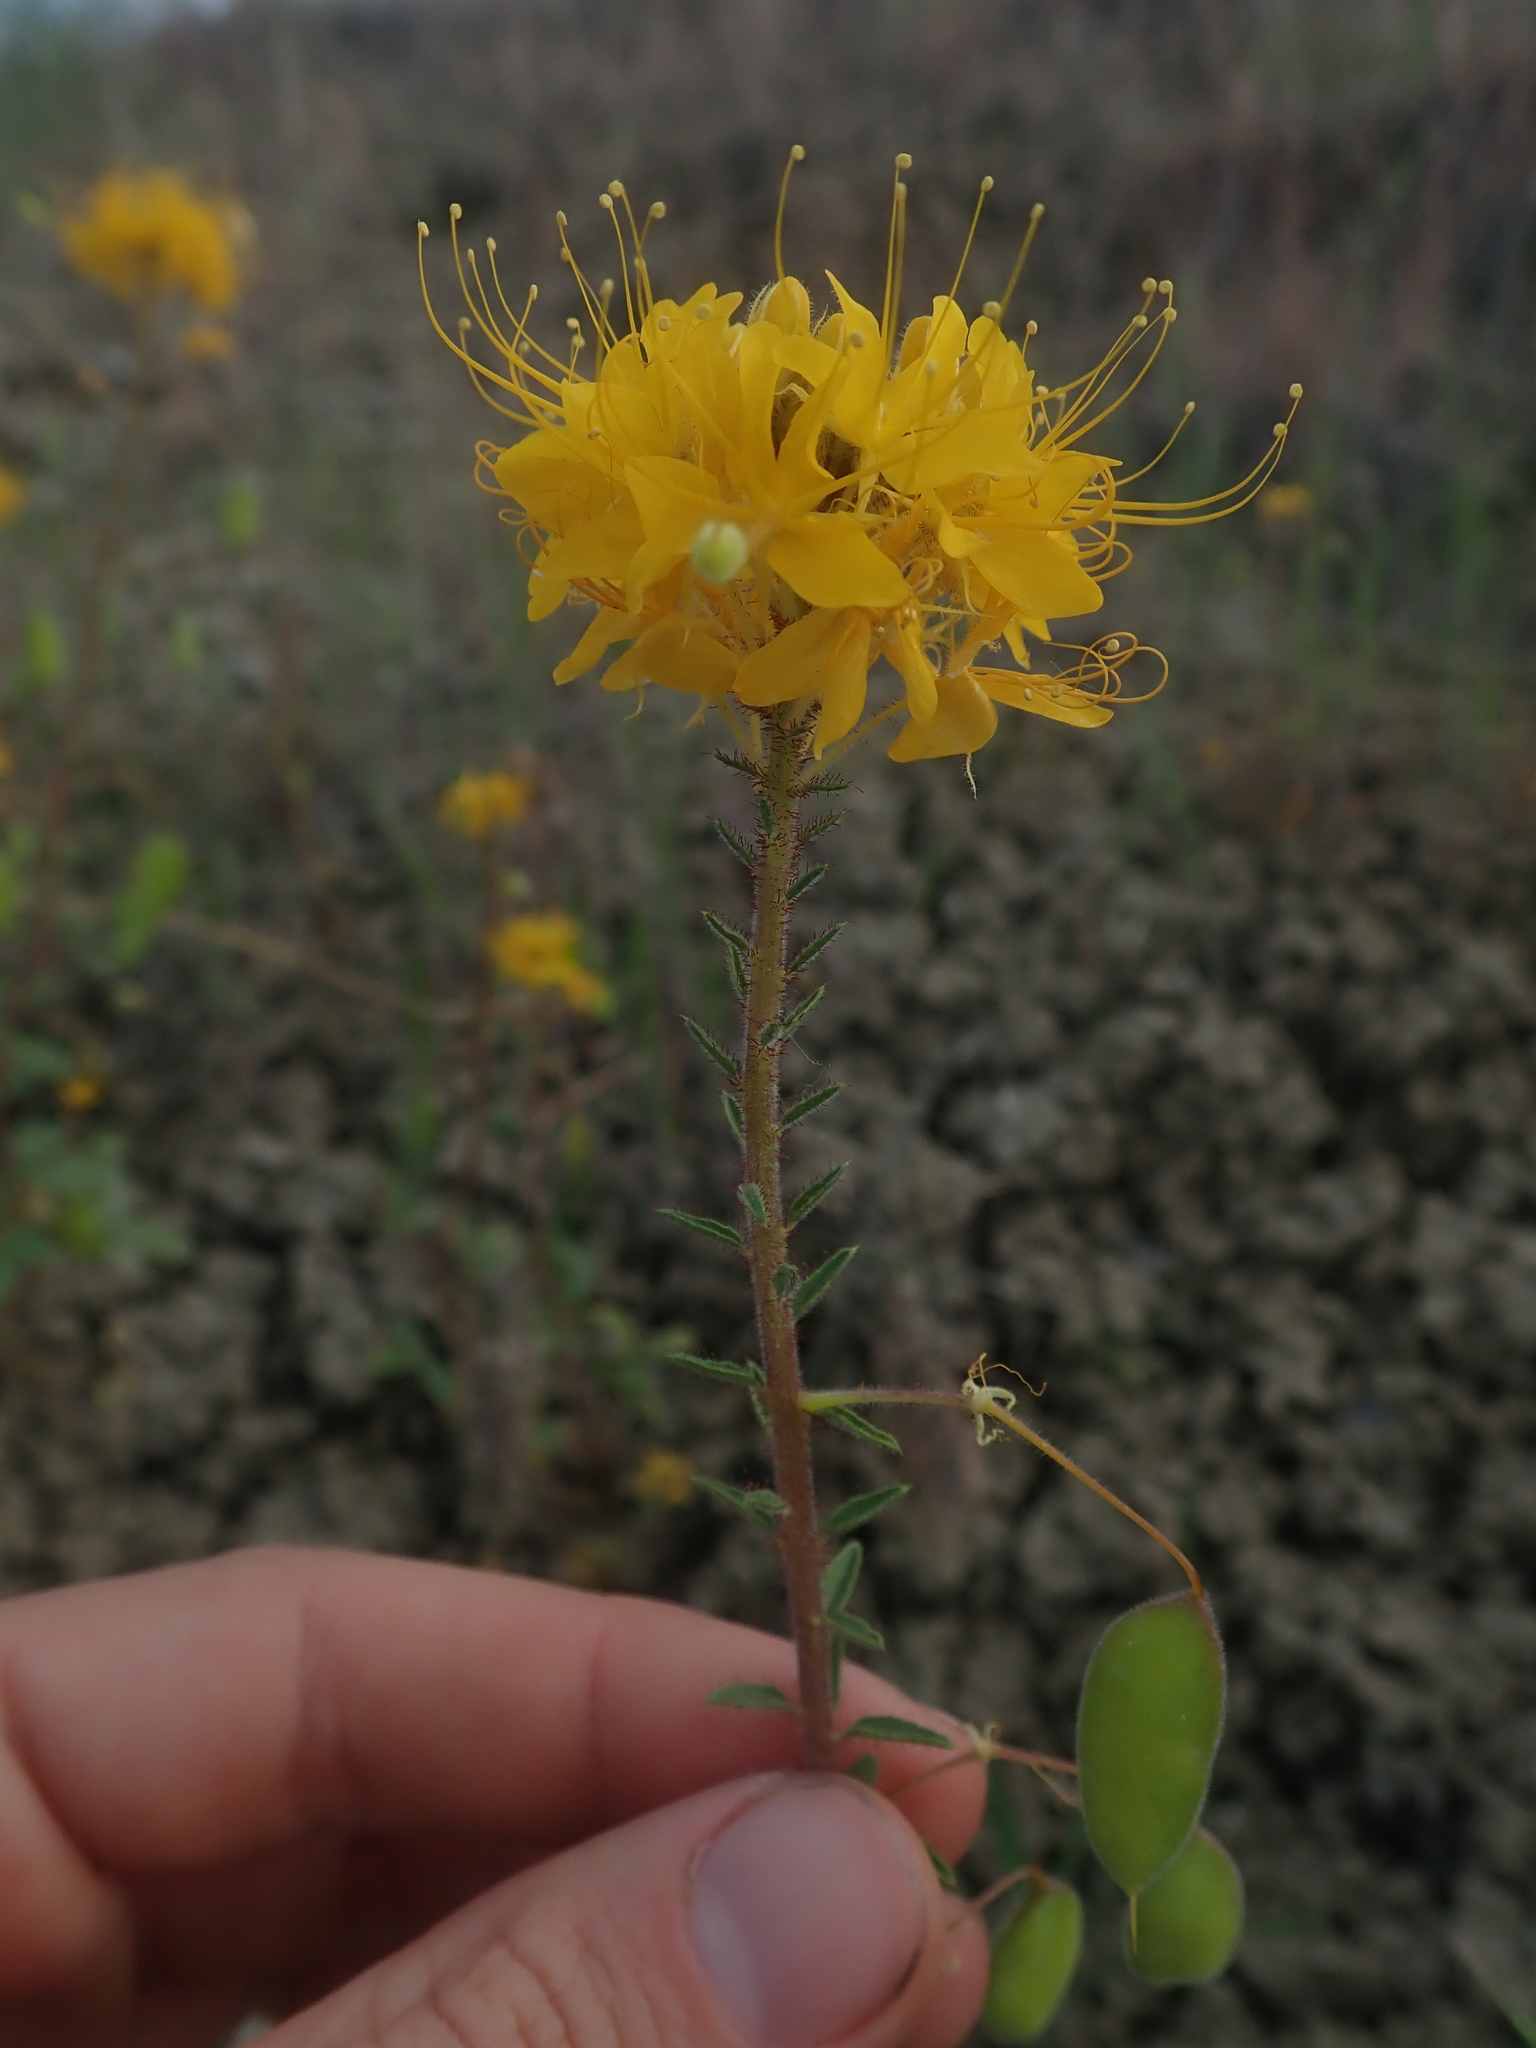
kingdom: Plantae
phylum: Tracheophyta
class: Magnoliopsida
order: Brassicales
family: Cleomaceae
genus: Cleomella
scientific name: Cleomella platycarpa
